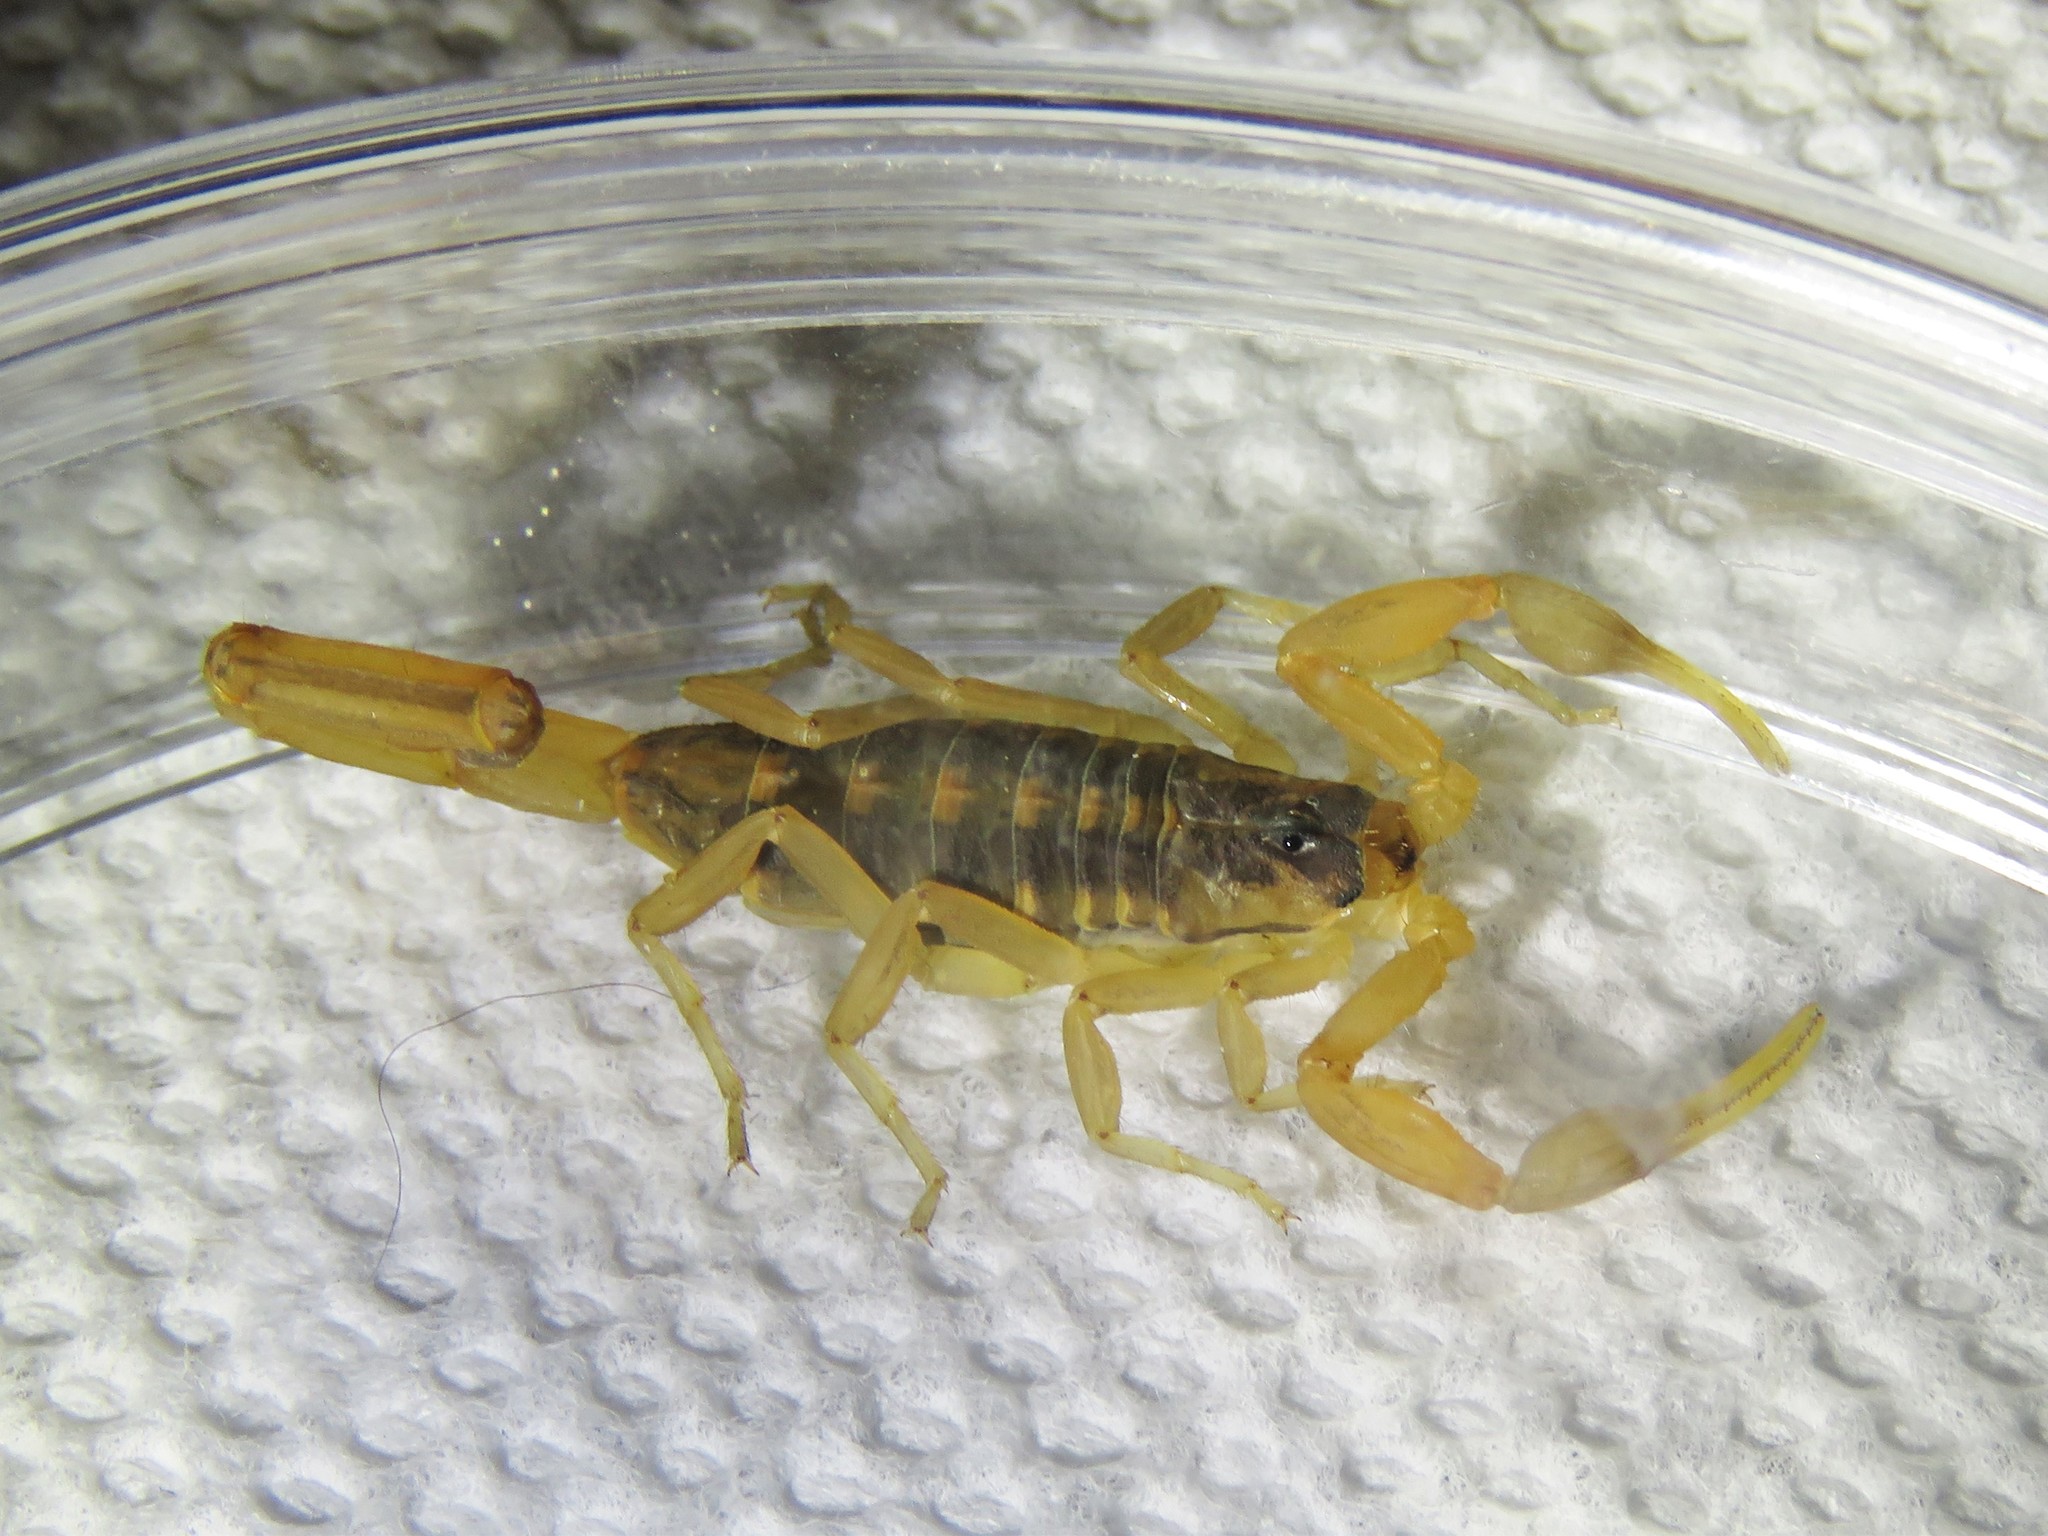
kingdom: Animalia
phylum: Arthropoda
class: Arachnida
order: Scorpiones
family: Buthidae
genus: Centruroides
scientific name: Centruroides vittatus
